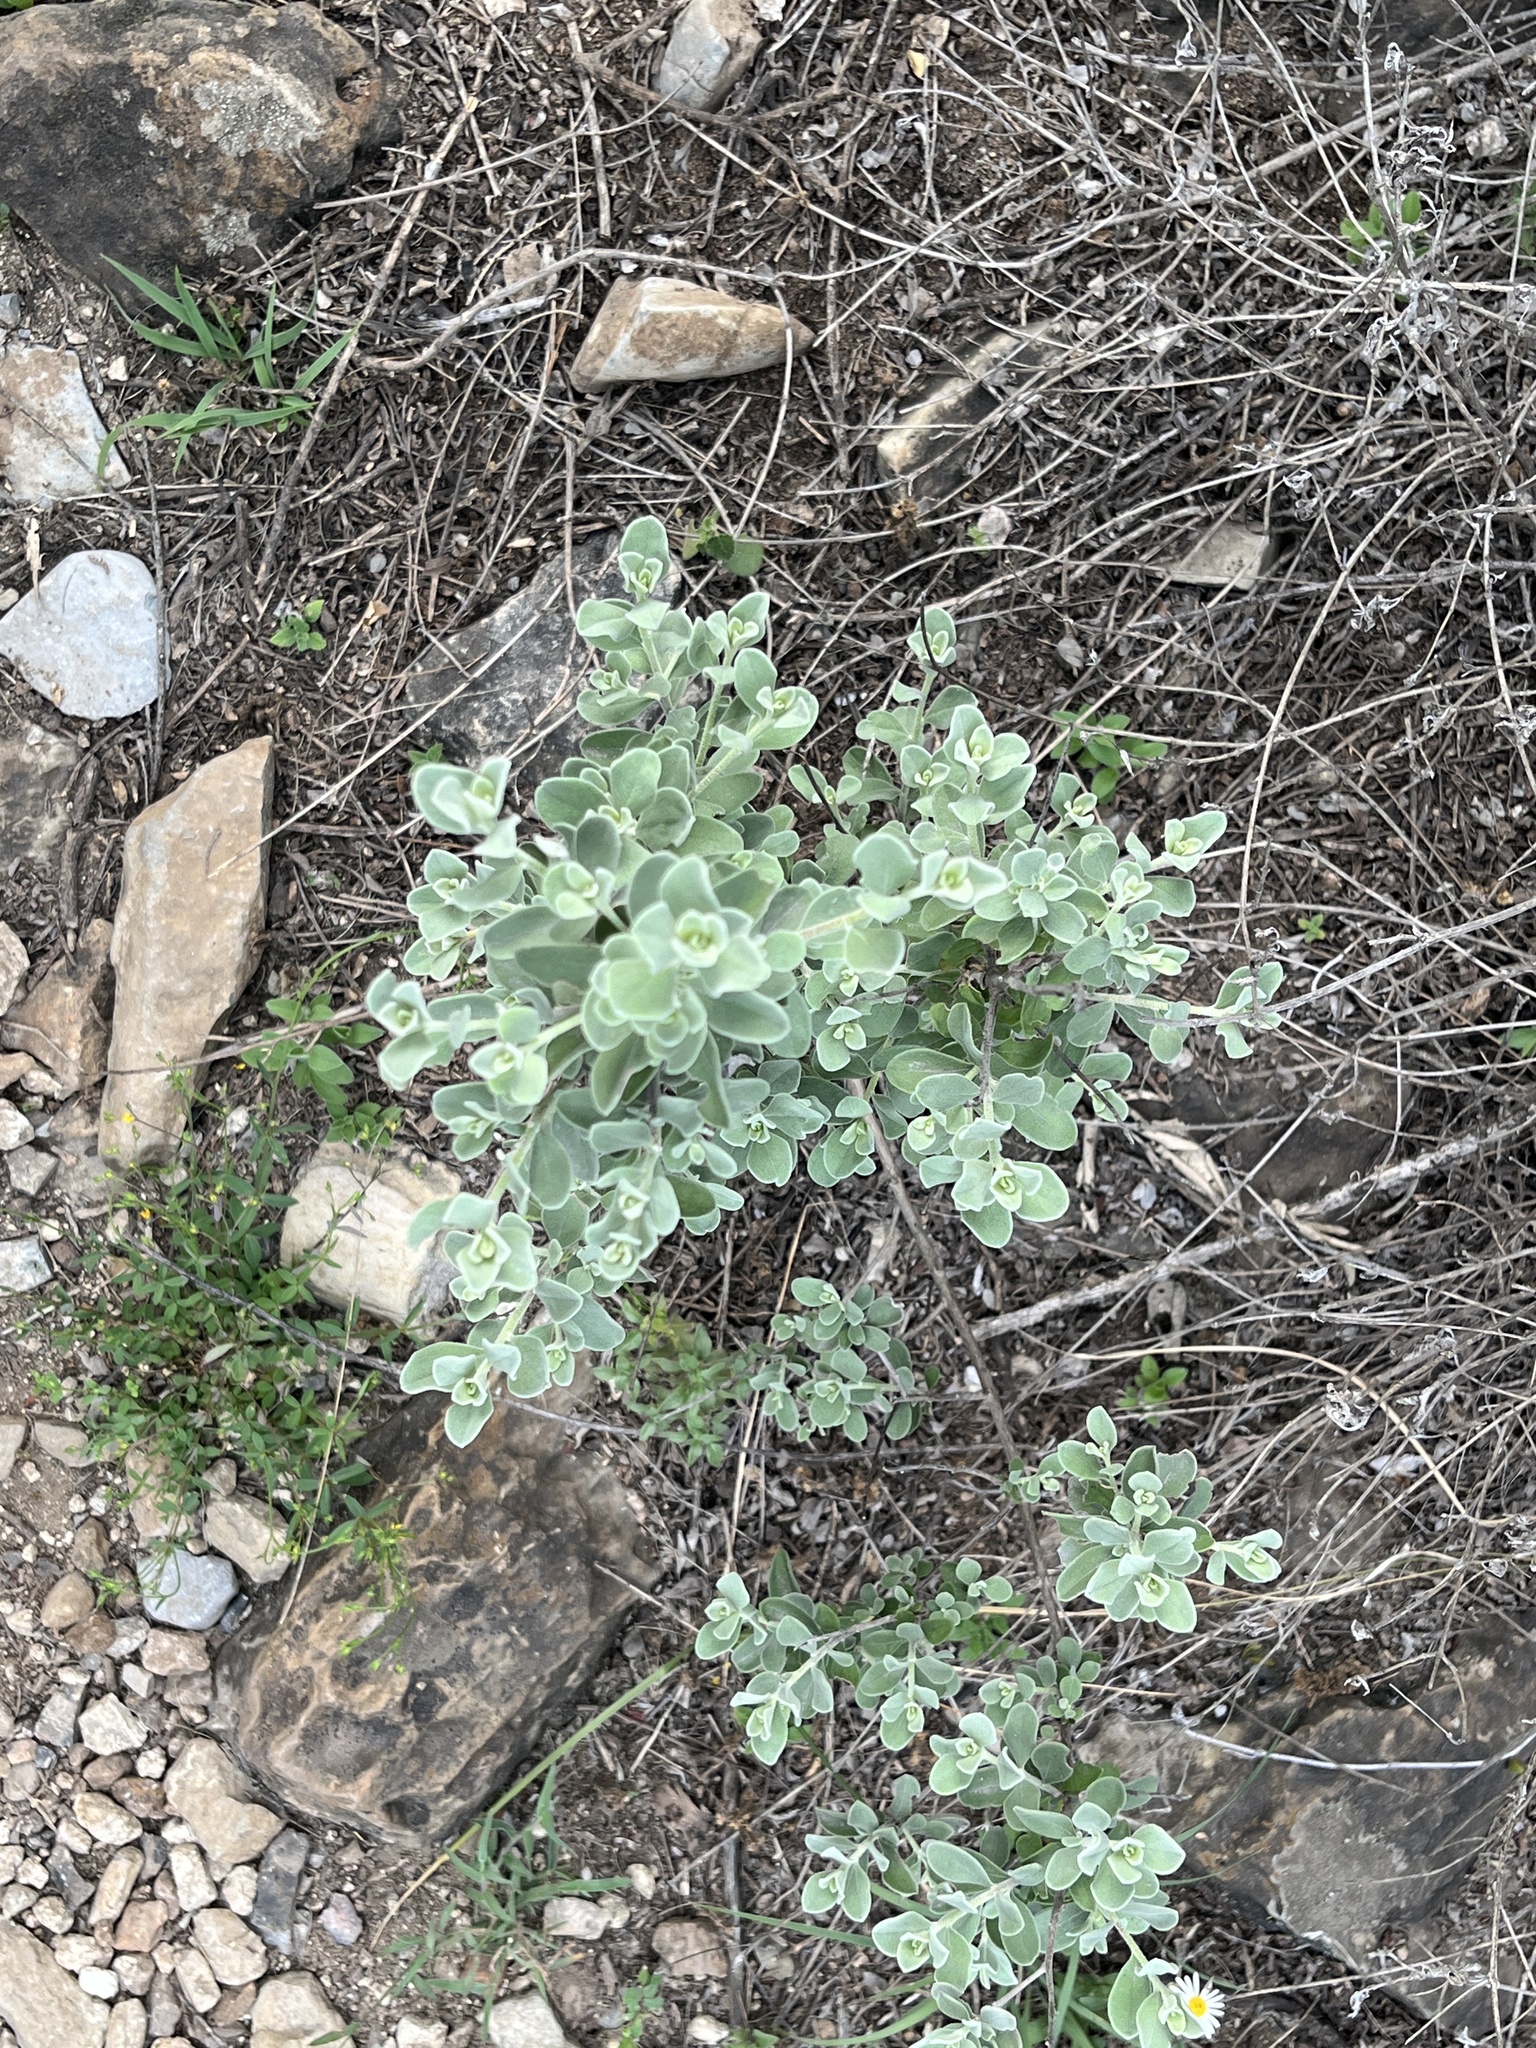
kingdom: Plantae
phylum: Tracheophyta
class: Magnoliopsida
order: Lamiales
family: Scrophulariaceae
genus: Leucophyllum
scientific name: Leucophyllum frutescens
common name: Texas silverleaf
